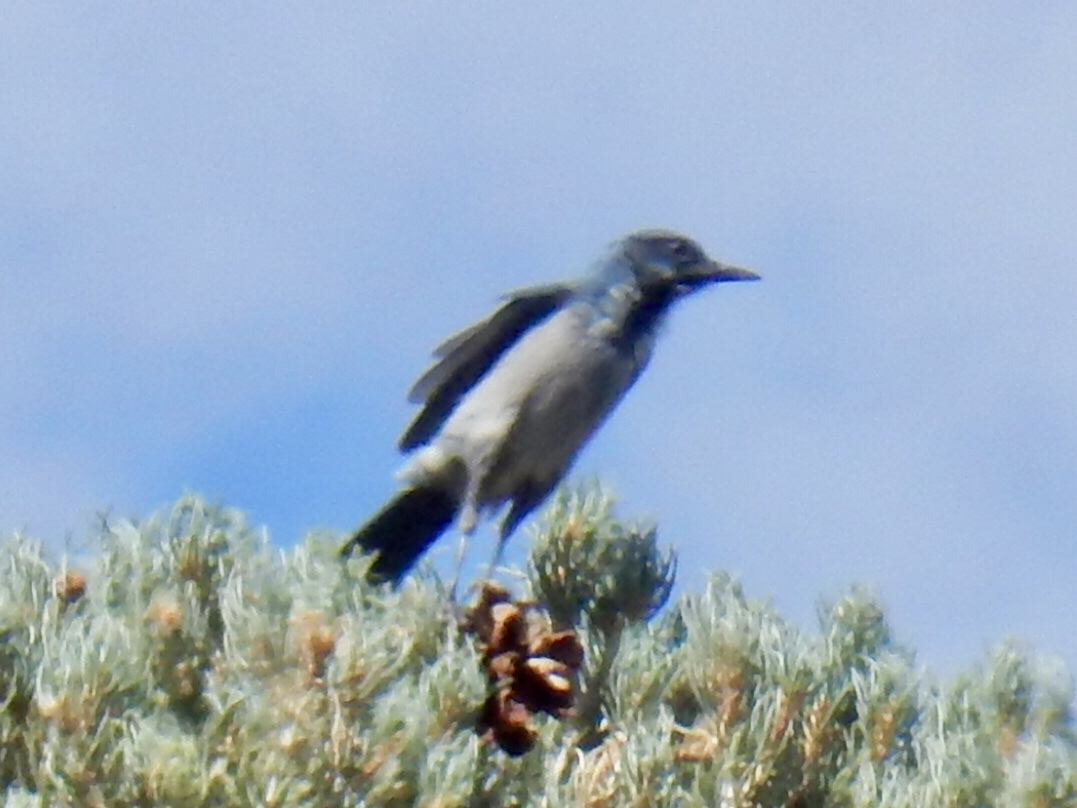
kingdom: Animalia
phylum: Chordata
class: Aves
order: Passeriformes
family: Corvidae
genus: Aphelocoma
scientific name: Aphelocoma woodhouseii
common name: Woodhouse's scrub-jay
